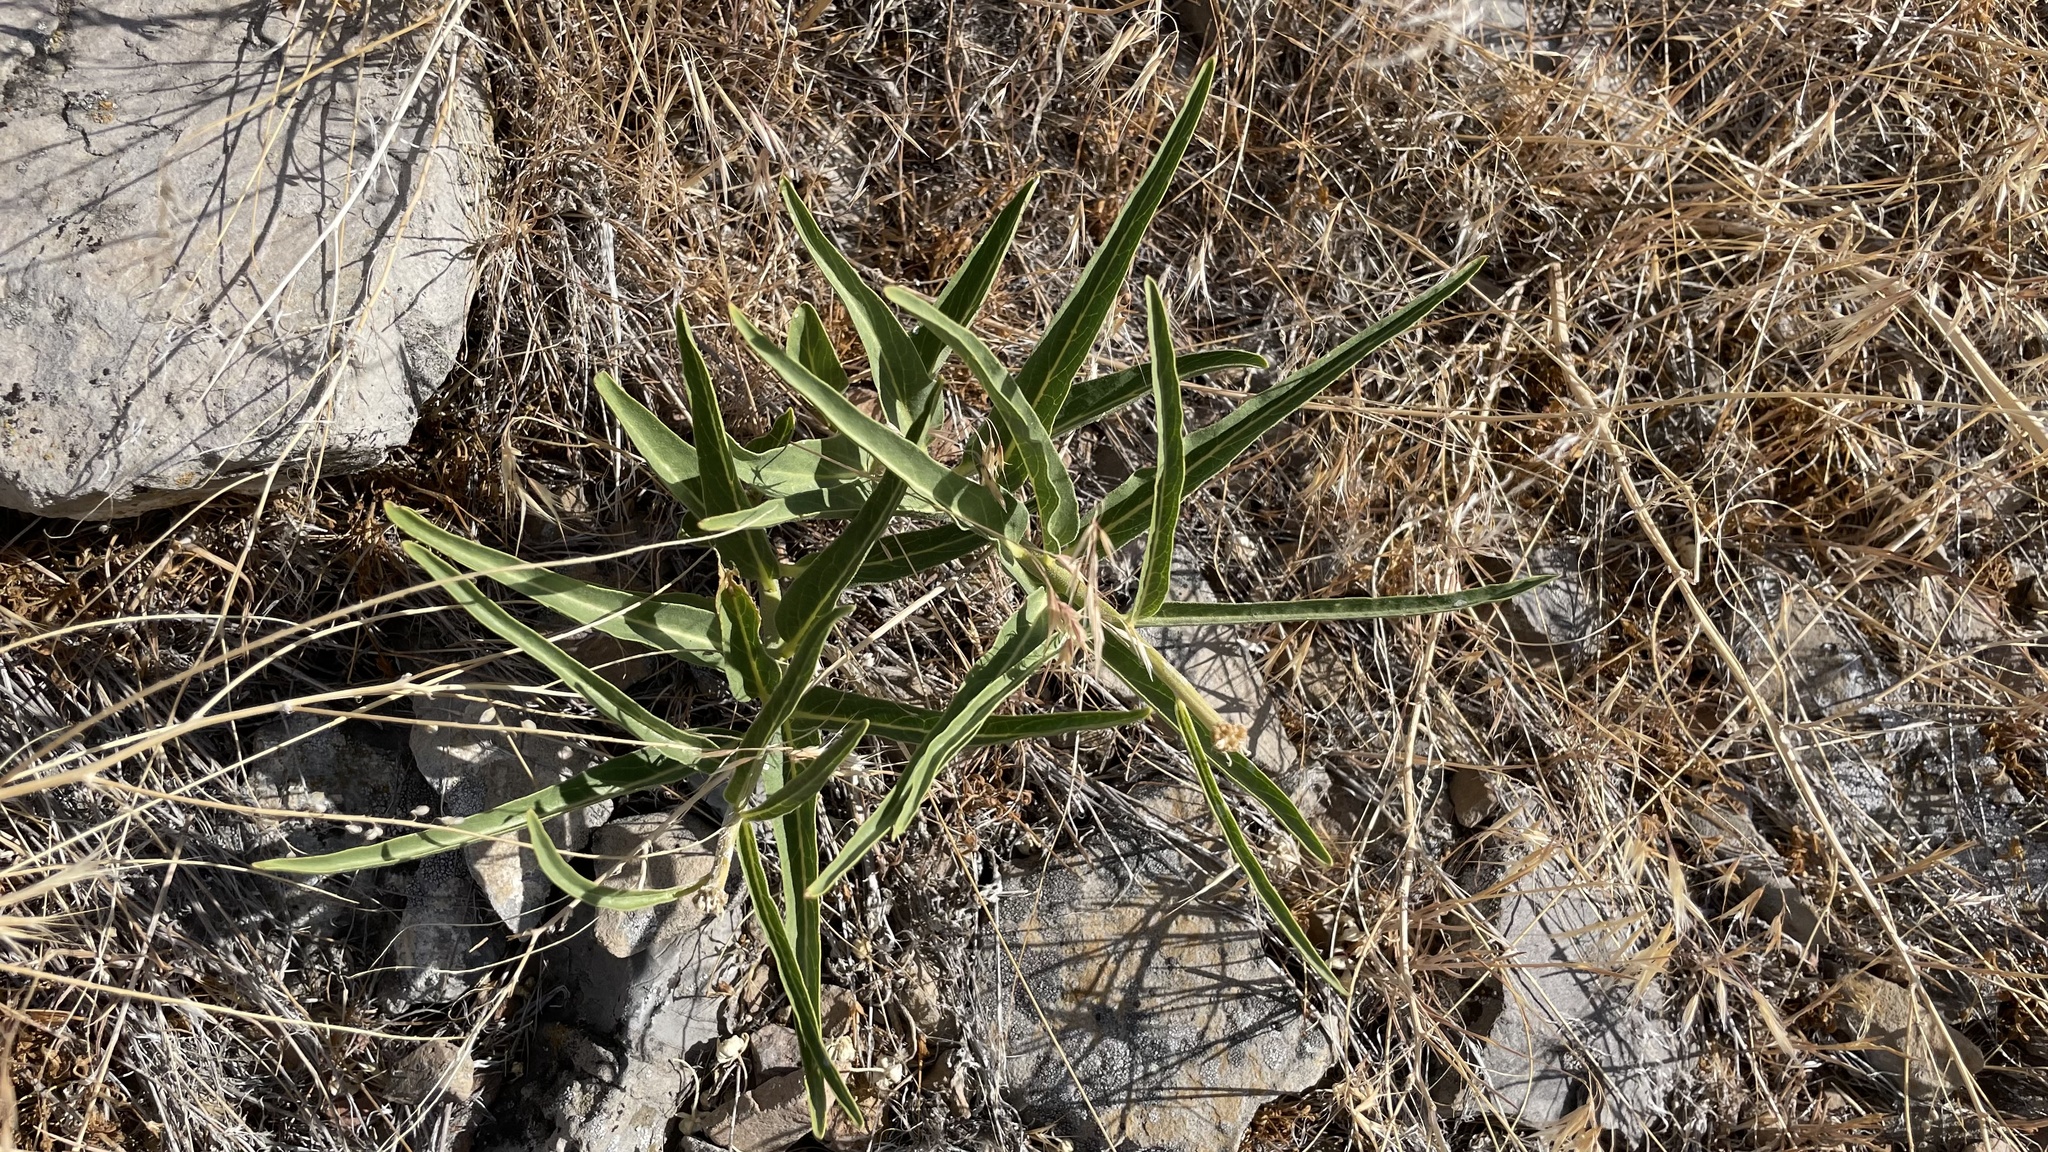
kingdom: Plantae
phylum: Tracheophyta
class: Magnoliopsida
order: Gentianales
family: Apocynaceae
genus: Asclepias
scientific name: Asclepias asperula
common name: Antelope horns
